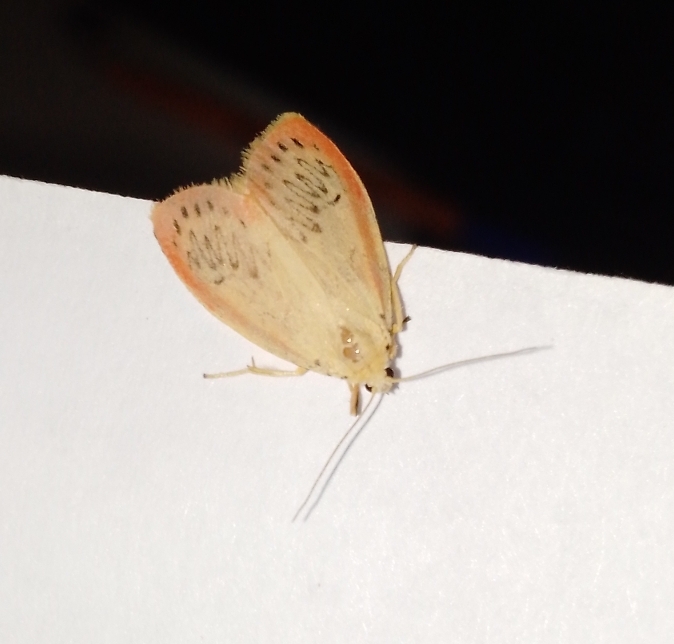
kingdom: Animalia
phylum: Arthropoda
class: Insecta
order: Lepidoptera
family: Erebidae
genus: Miltochrista
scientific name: Miltochrista miniata
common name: Rosy footman
